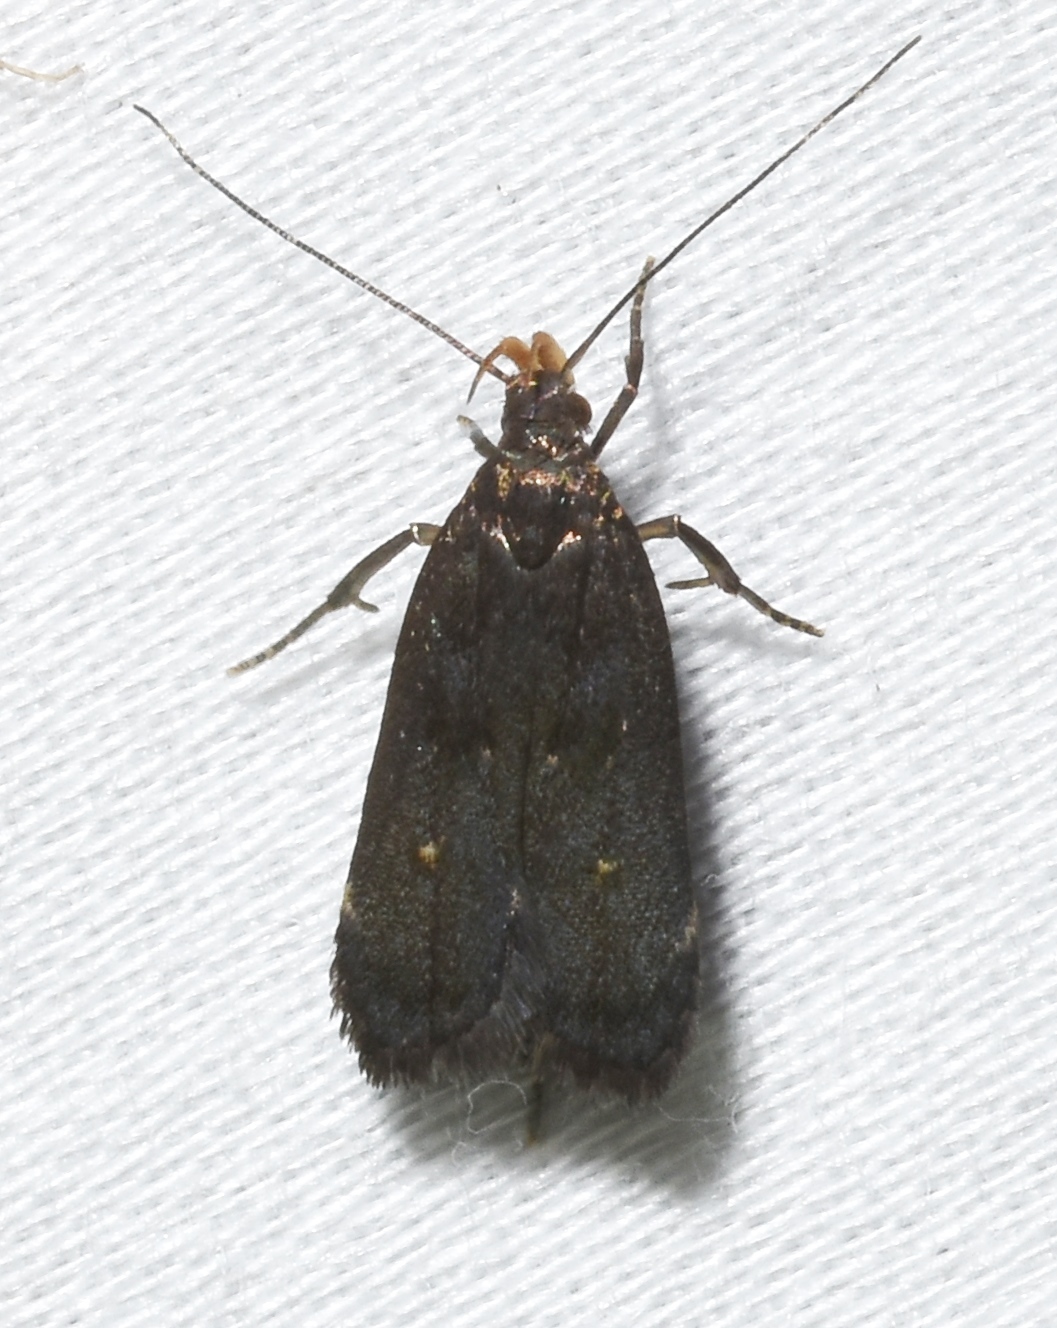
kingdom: Animalia
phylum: Arthropoda
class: Insecta
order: Lepidoptera
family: Gelechiidae
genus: Dichomeris
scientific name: Dichomeris juncidella
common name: Orange-dotted dichomeris moth
